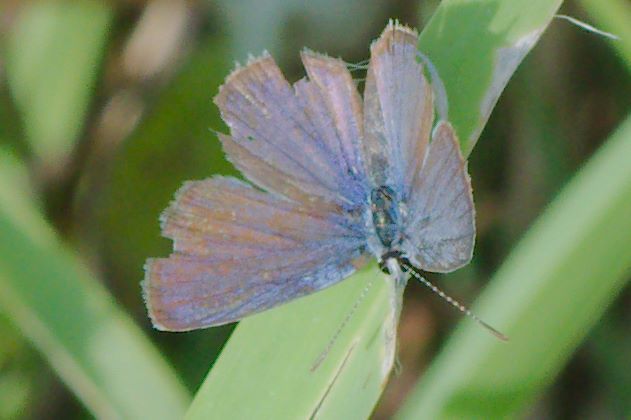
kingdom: Animalia
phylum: Arthropoda
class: Insecta
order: Lepidoptera
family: Lycaenidae
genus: Hemiargus
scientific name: Hemiargus ceraunus
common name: Ceraunus blue
